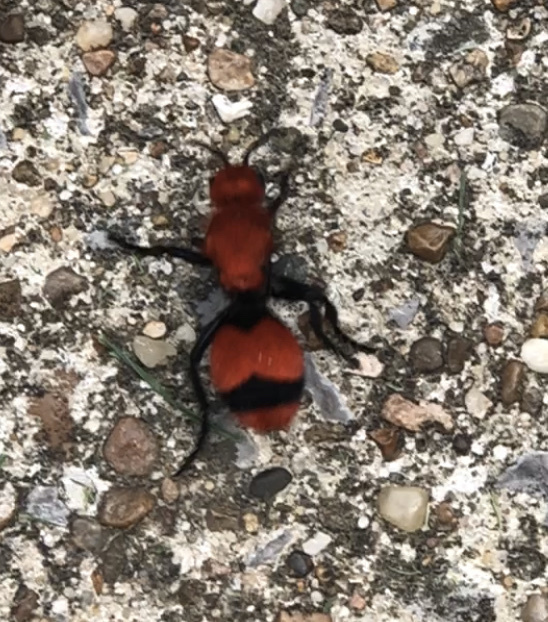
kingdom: Animalia
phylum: Arthropoda
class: Insecta
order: Hymenoptera
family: Mutillidae
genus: Dasymutilla
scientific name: Dasymutilla occidentalis
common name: Common eastern velvet ant
